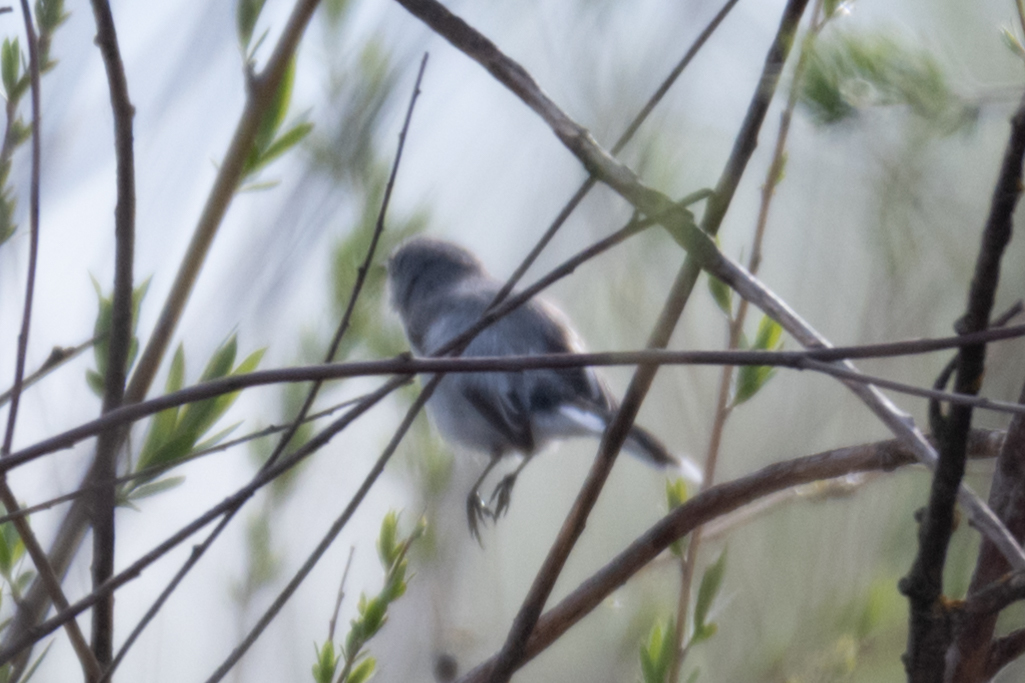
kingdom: Animalia
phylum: Chordata
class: Aves
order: Passeriformes
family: Polioptilidae
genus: Polioptila
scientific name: Polioptila caerulea
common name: Blue-gray gnatcatcher
